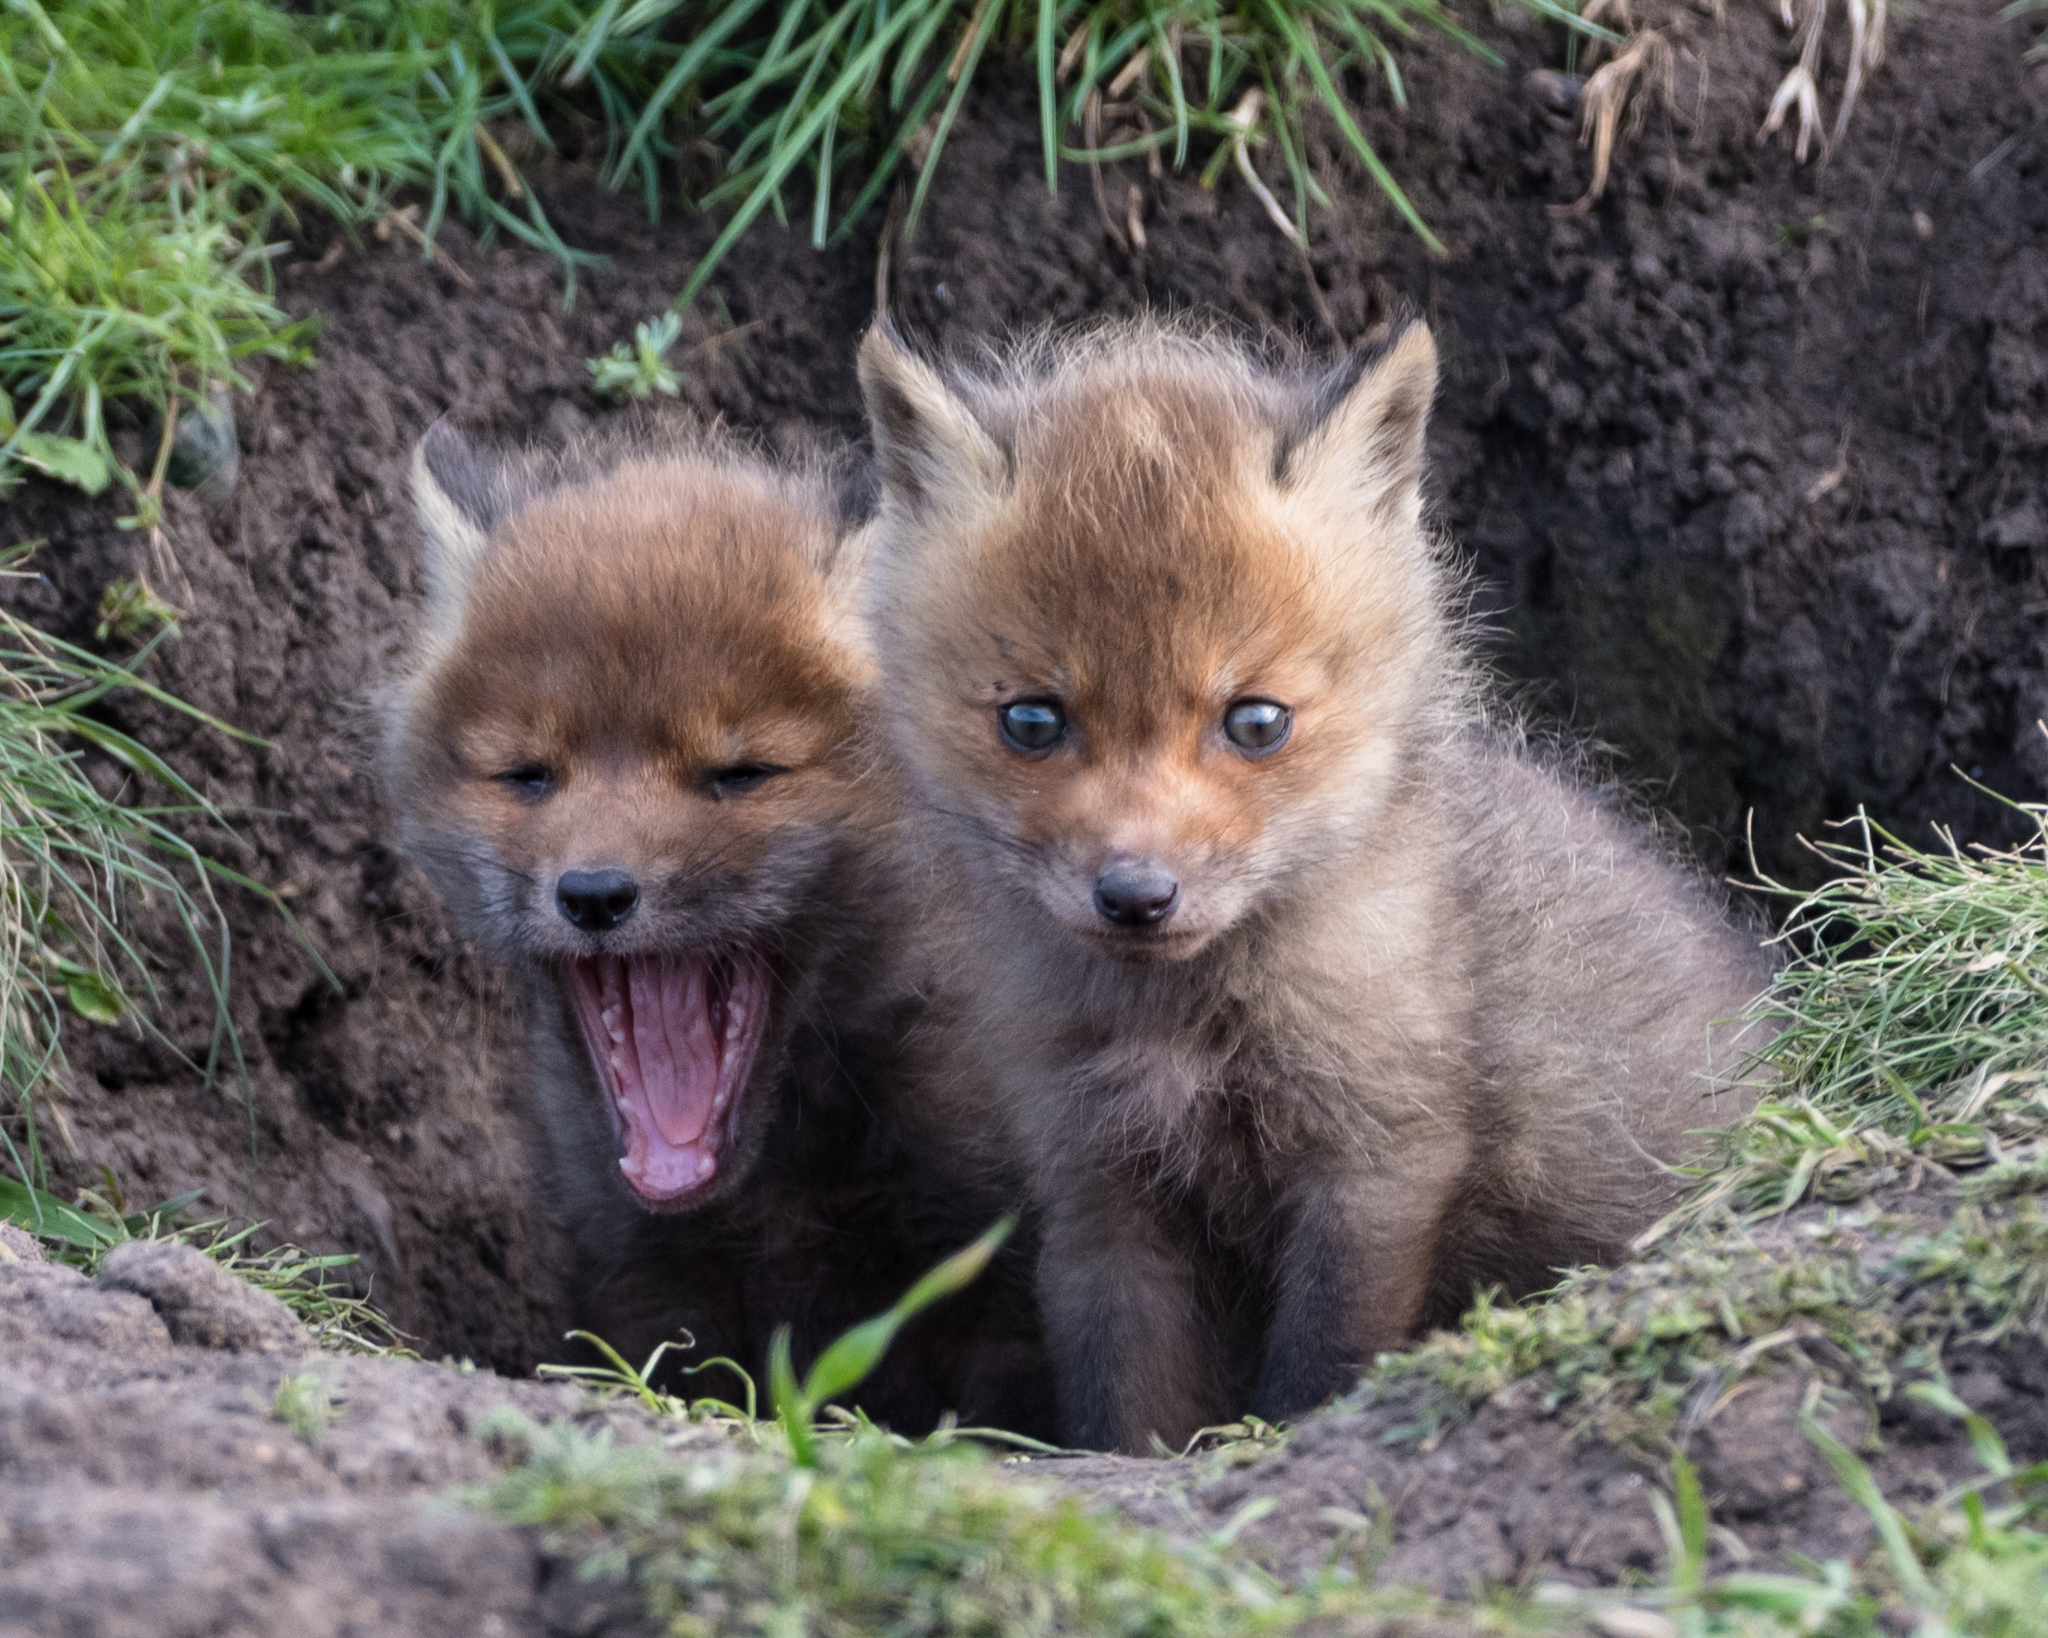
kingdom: Animalia
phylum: Chordata
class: Mammalia
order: Carnivora
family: Canidae
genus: Vulpes
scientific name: Vulpes vulpes
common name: Red fox
